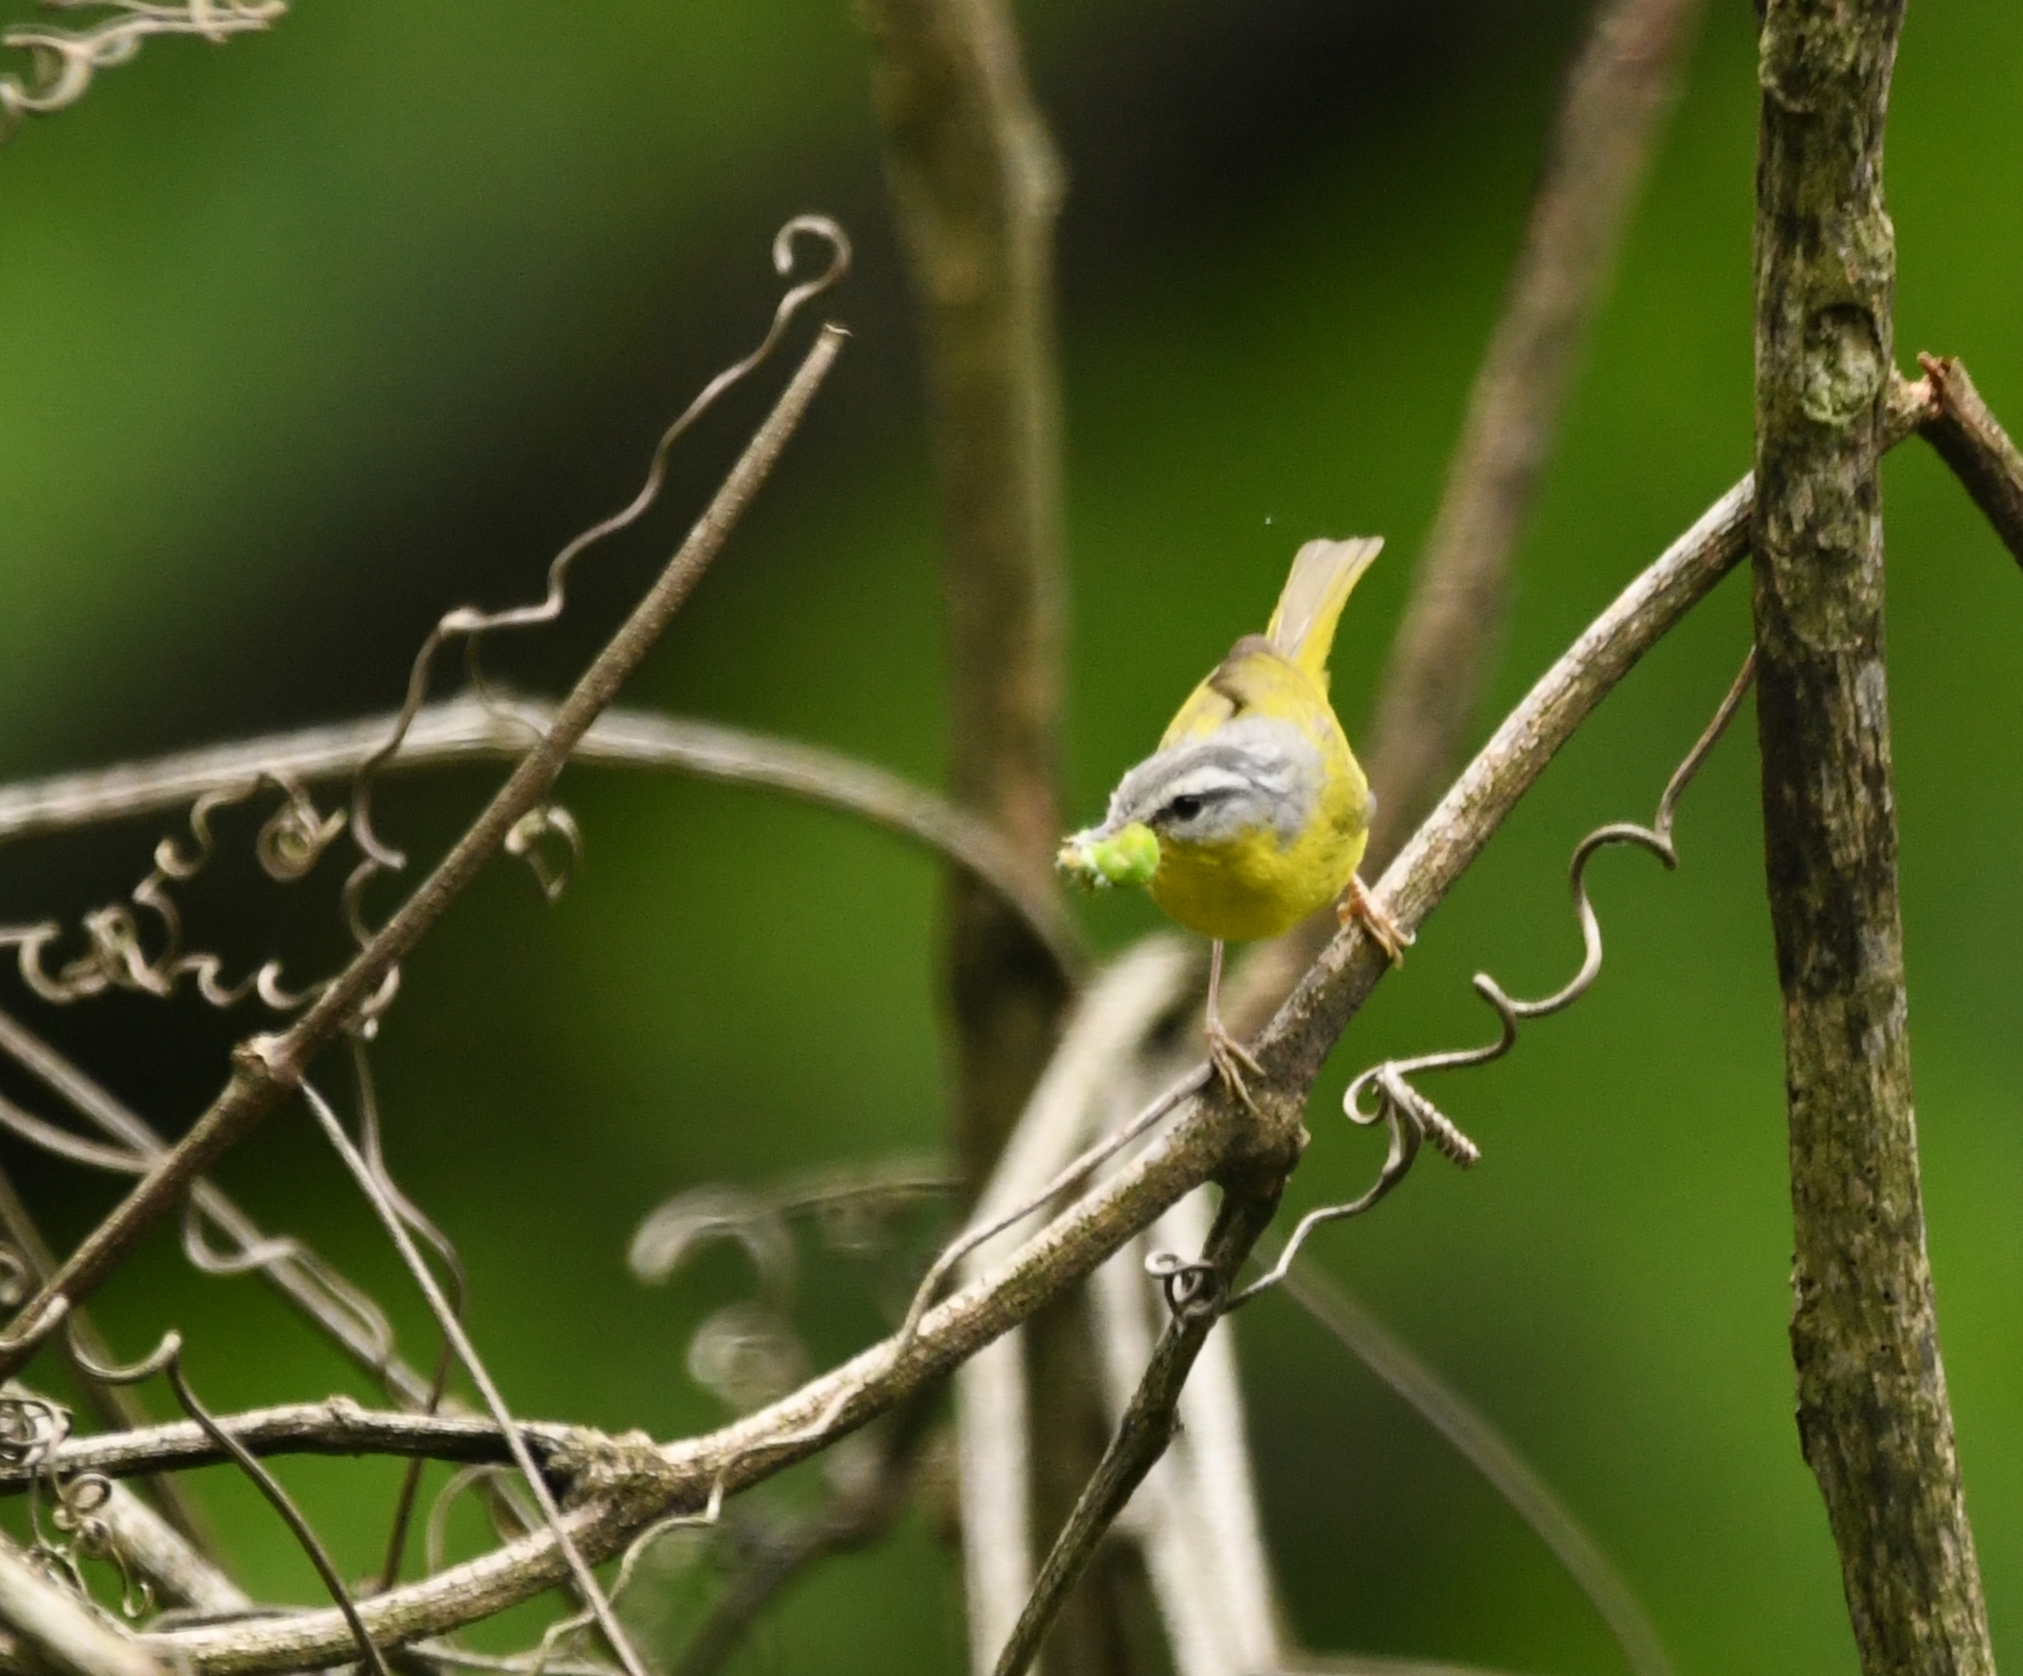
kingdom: Animalia
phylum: Chordata
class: Aves
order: Passeriformes
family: Phylloscopidae
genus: Phylloscopus
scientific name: Phylloscopus xanthoschistos
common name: Grey-hooded warbler
